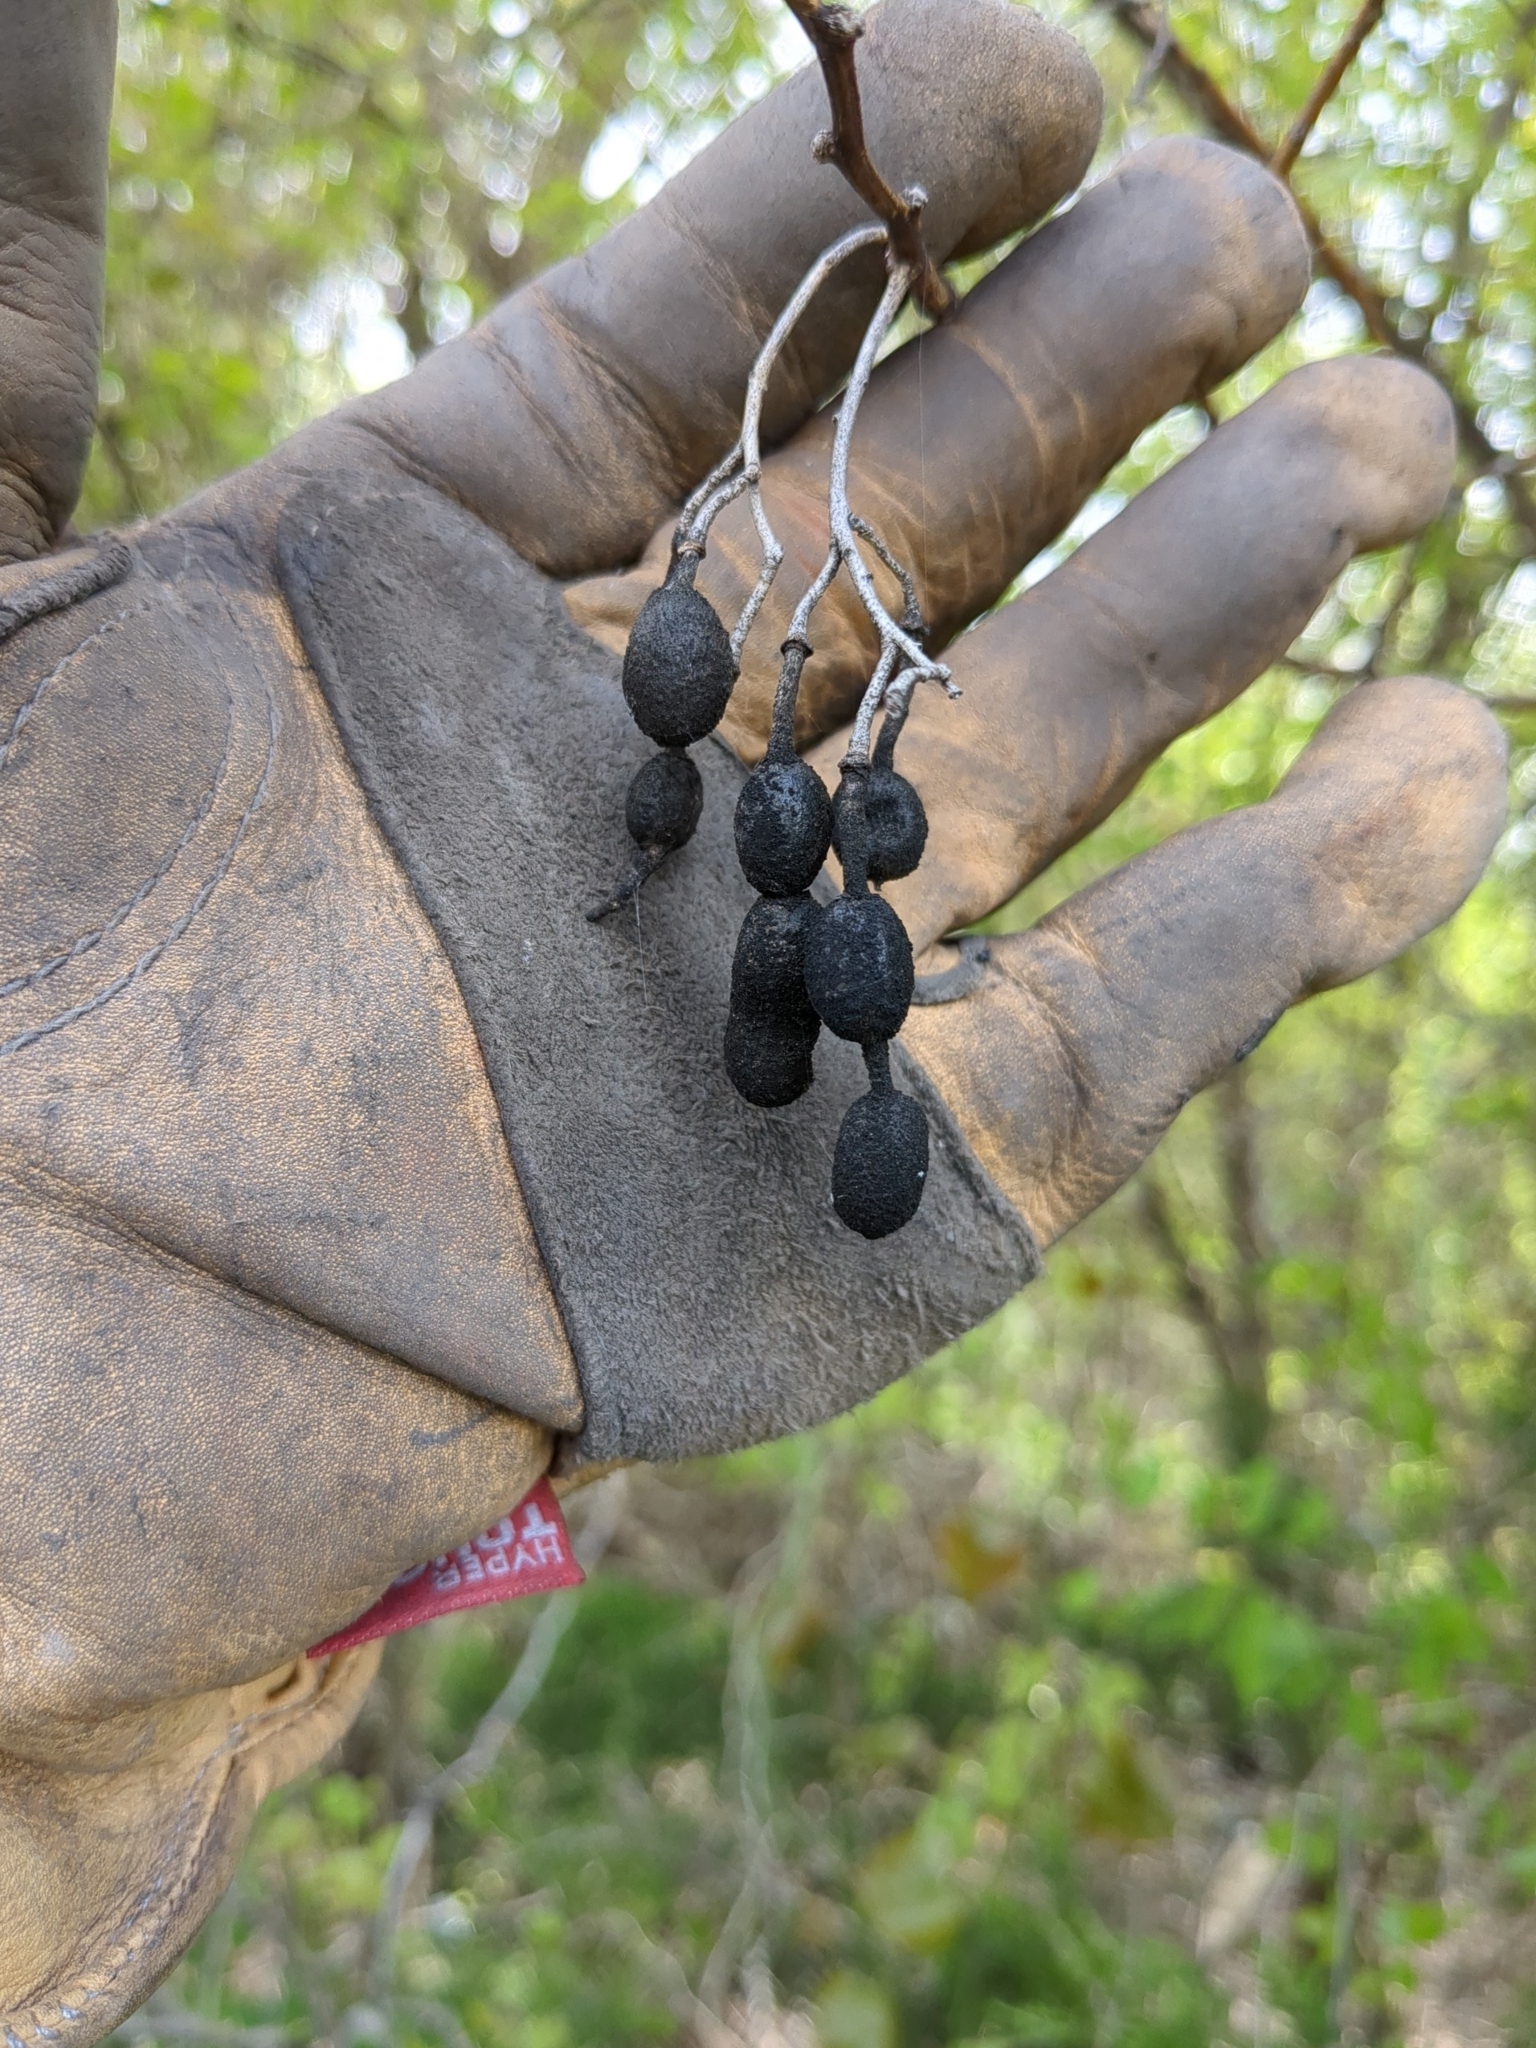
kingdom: Plantae
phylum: Tracheophyta
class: Magnoliopsida
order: Fabales
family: Fabaceae
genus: Styphnolobium
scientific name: Styphnolobium affine
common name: Texas sophora
